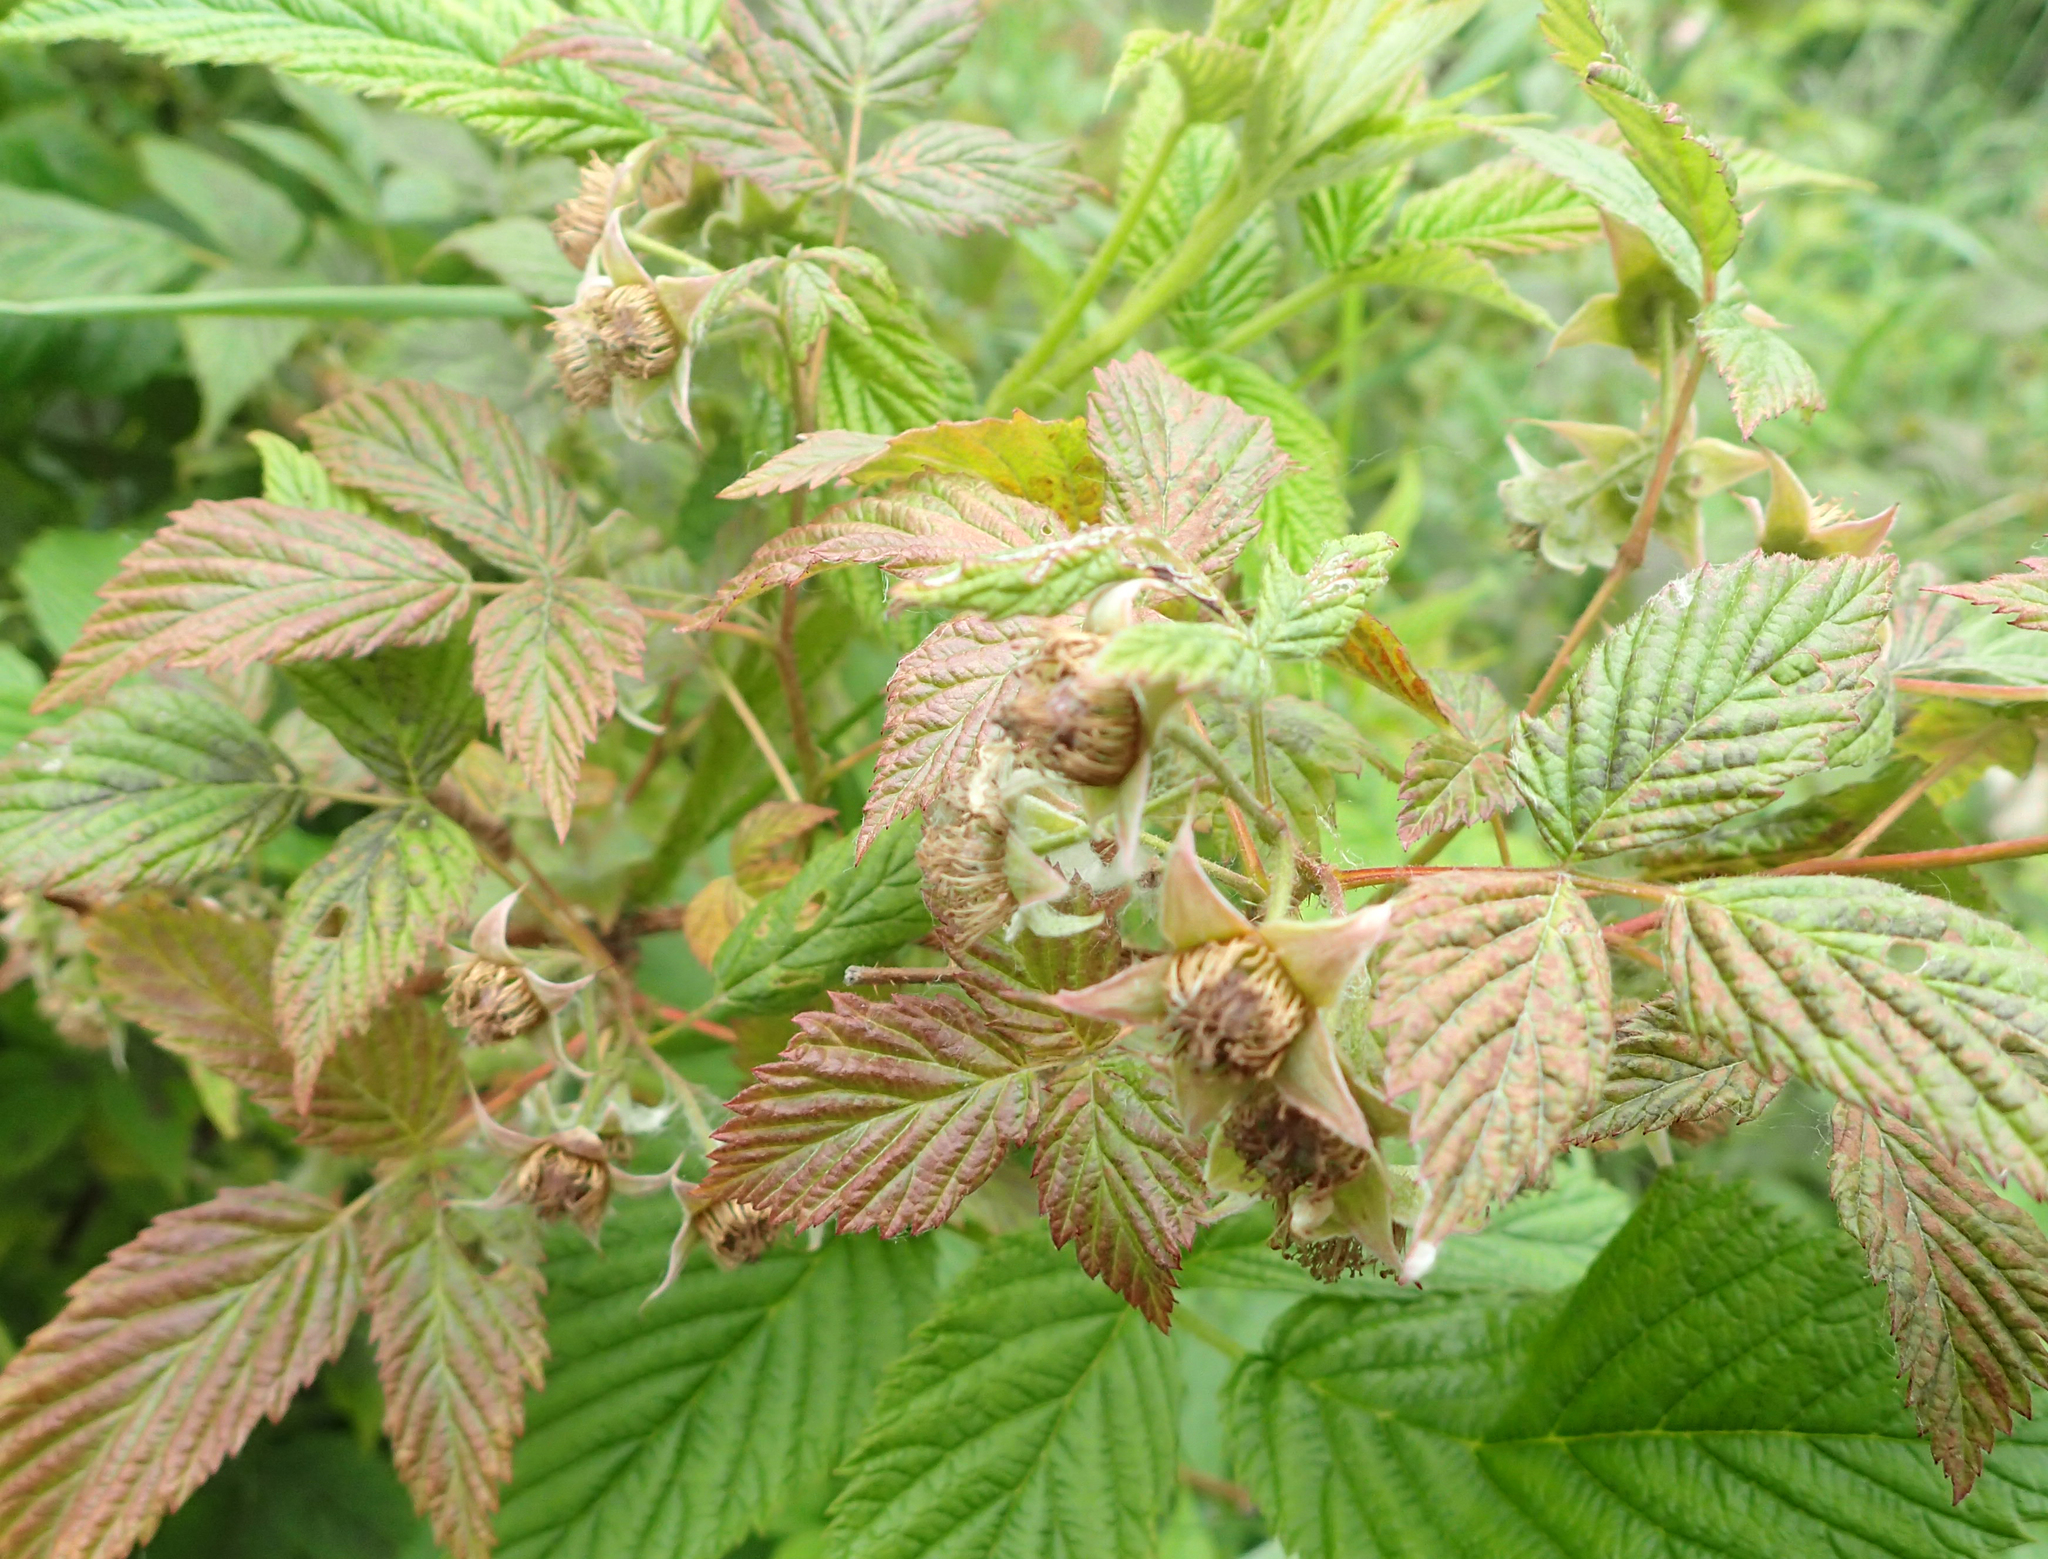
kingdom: Plantae
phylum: Tracheophyta
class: Magnoliopsida
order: Rosales
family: Rosaceae
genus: Rubus
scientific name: Rubus spectabilis
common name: Salmonberry
